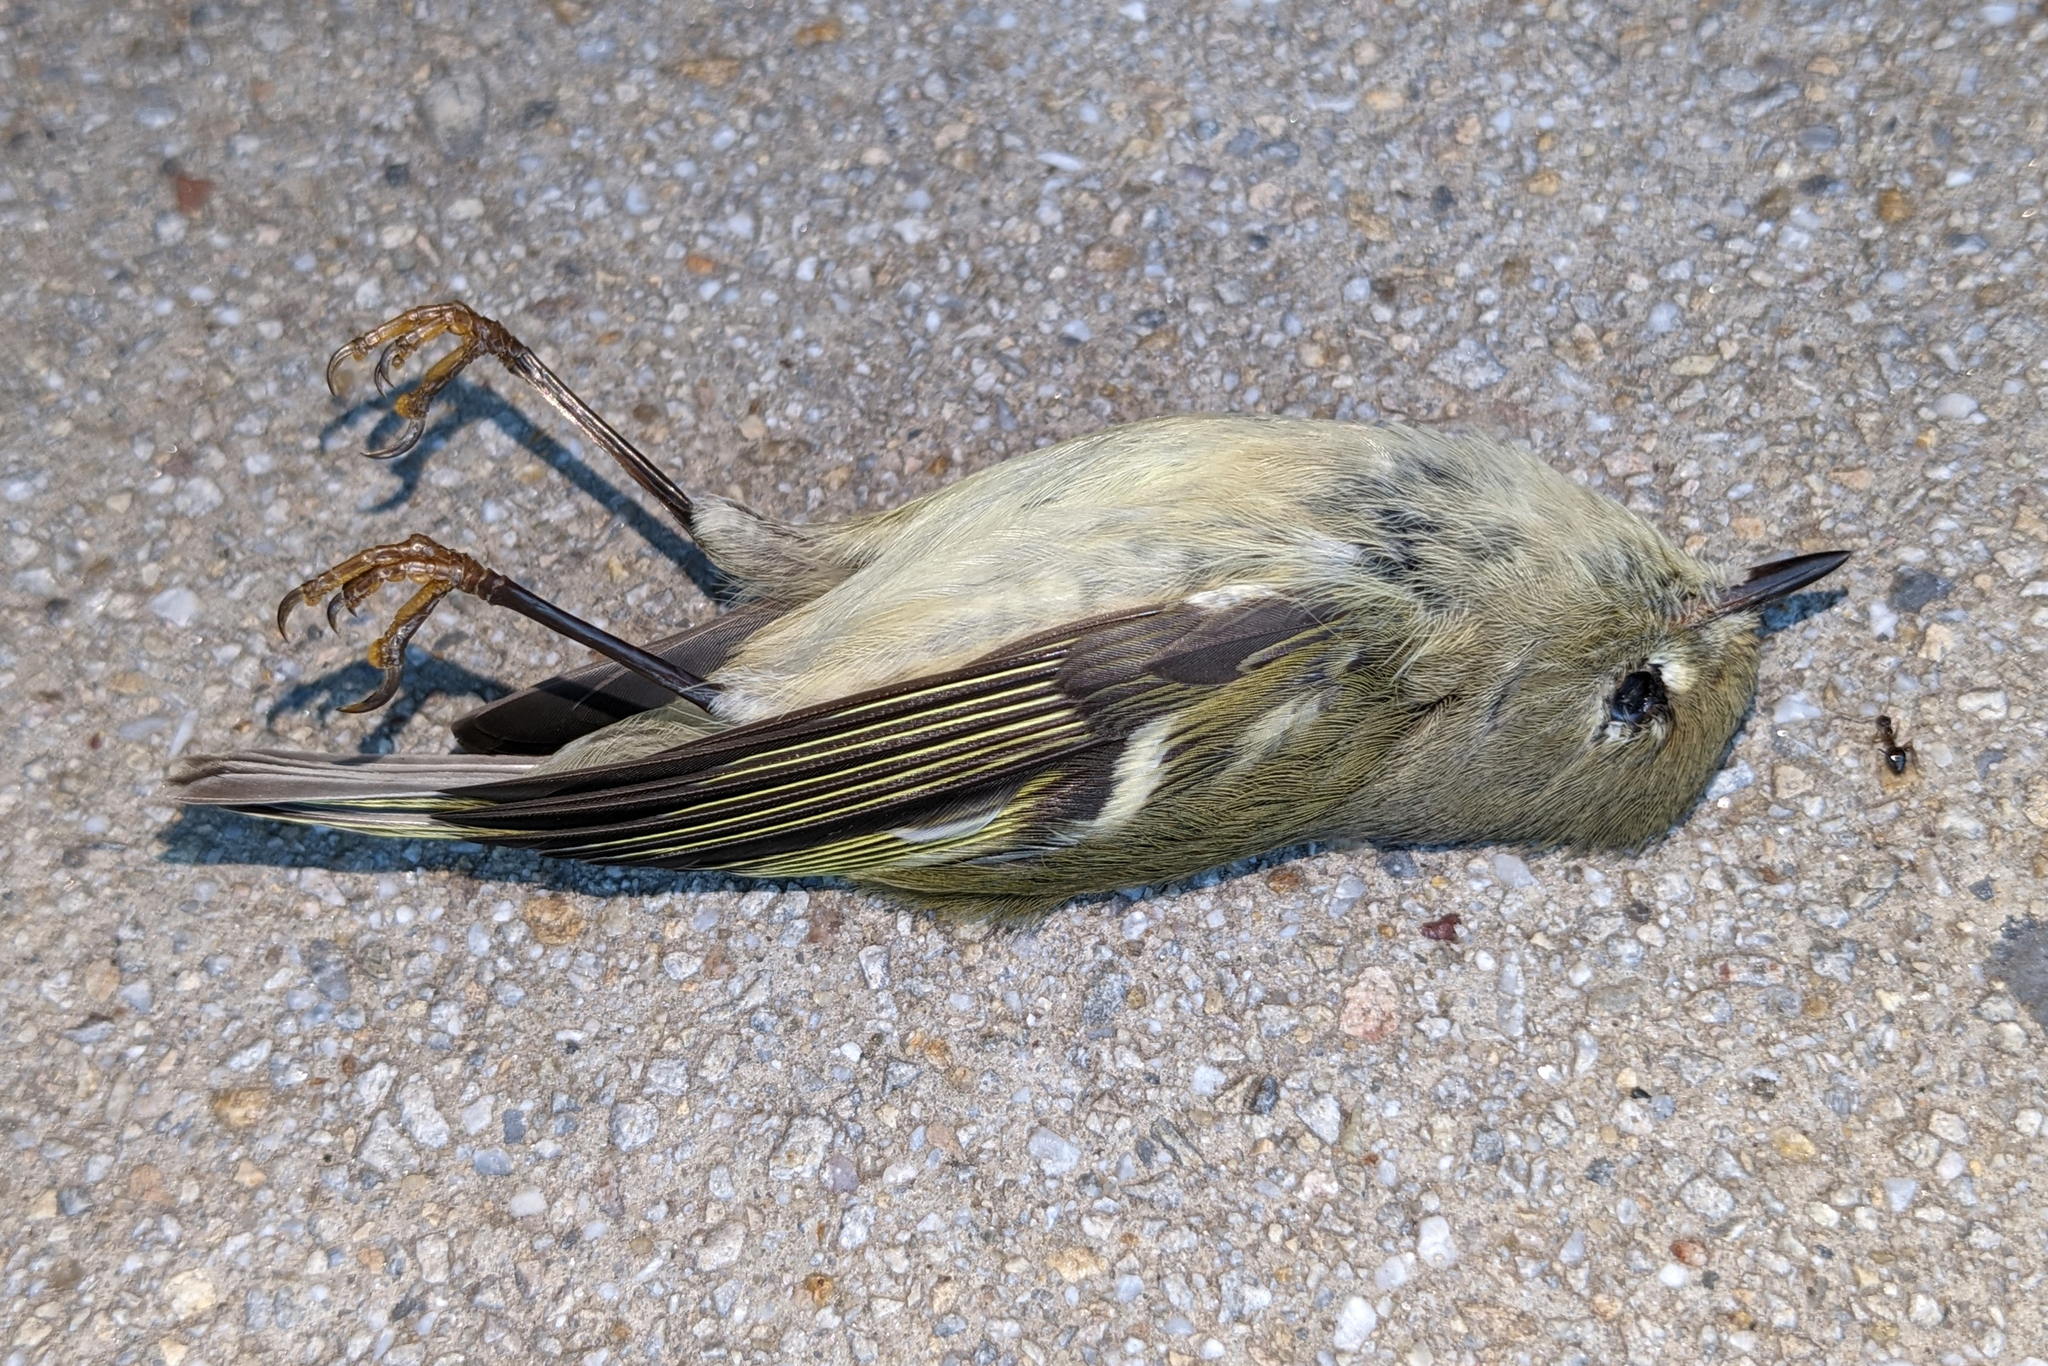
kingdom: Animalia
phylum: Chordata
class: Aves
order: Passeriformes
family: Regulidae
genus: Regulus
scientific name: Regulus calendula
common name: Ruby-crowned kinglet
